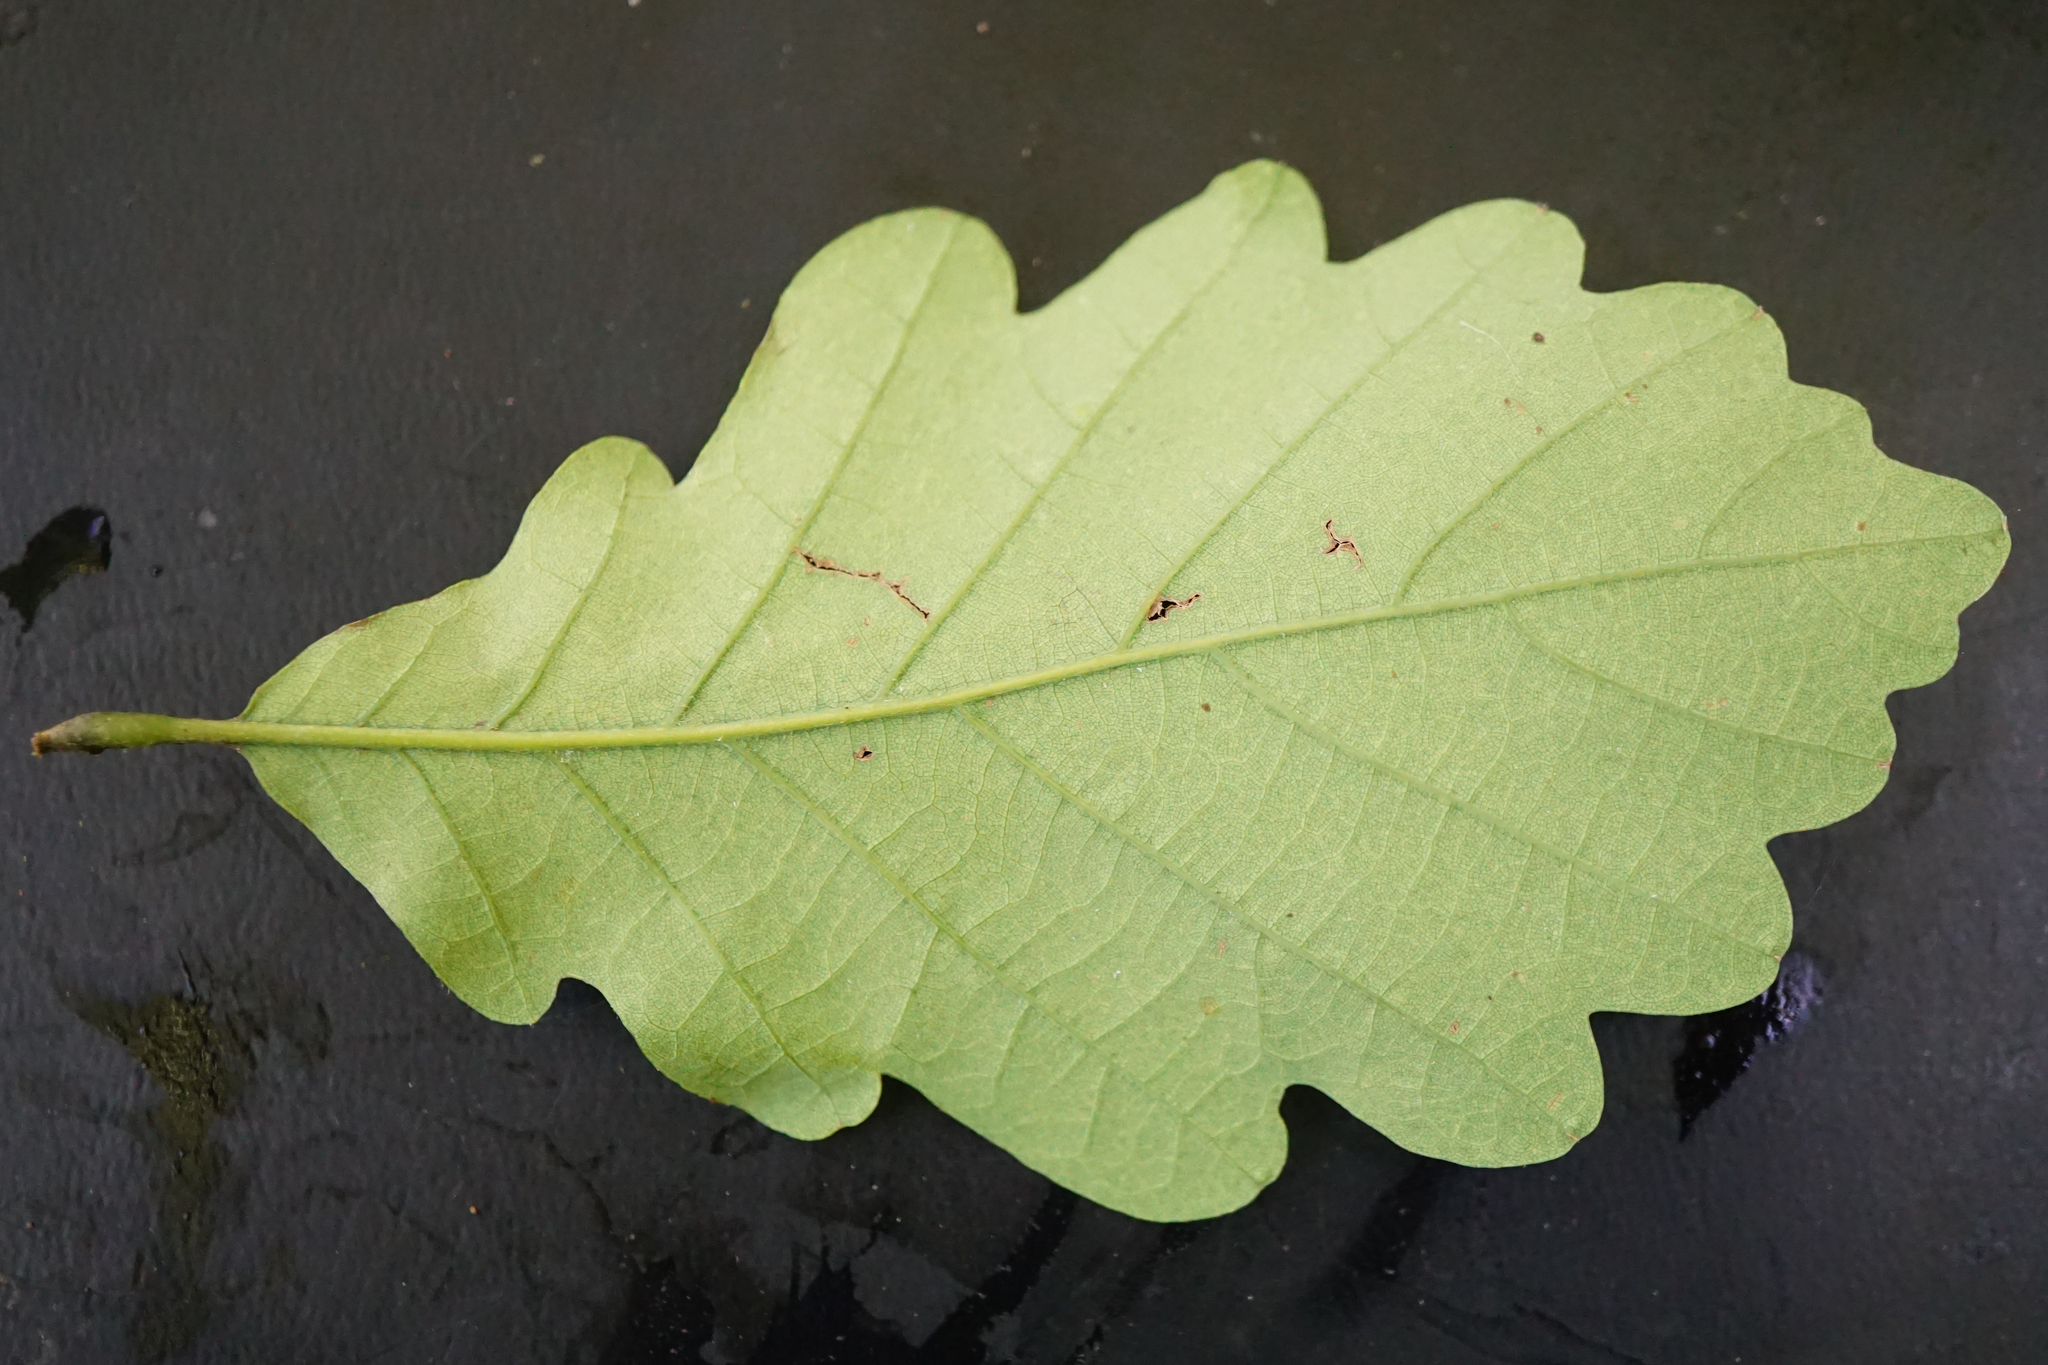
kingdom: Plantae
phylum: Tracheophyta
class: Magnoliopsida
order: Fagales
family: Fagaceae
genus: Quercus
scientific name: Quercus petraea
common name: Sessile oak
